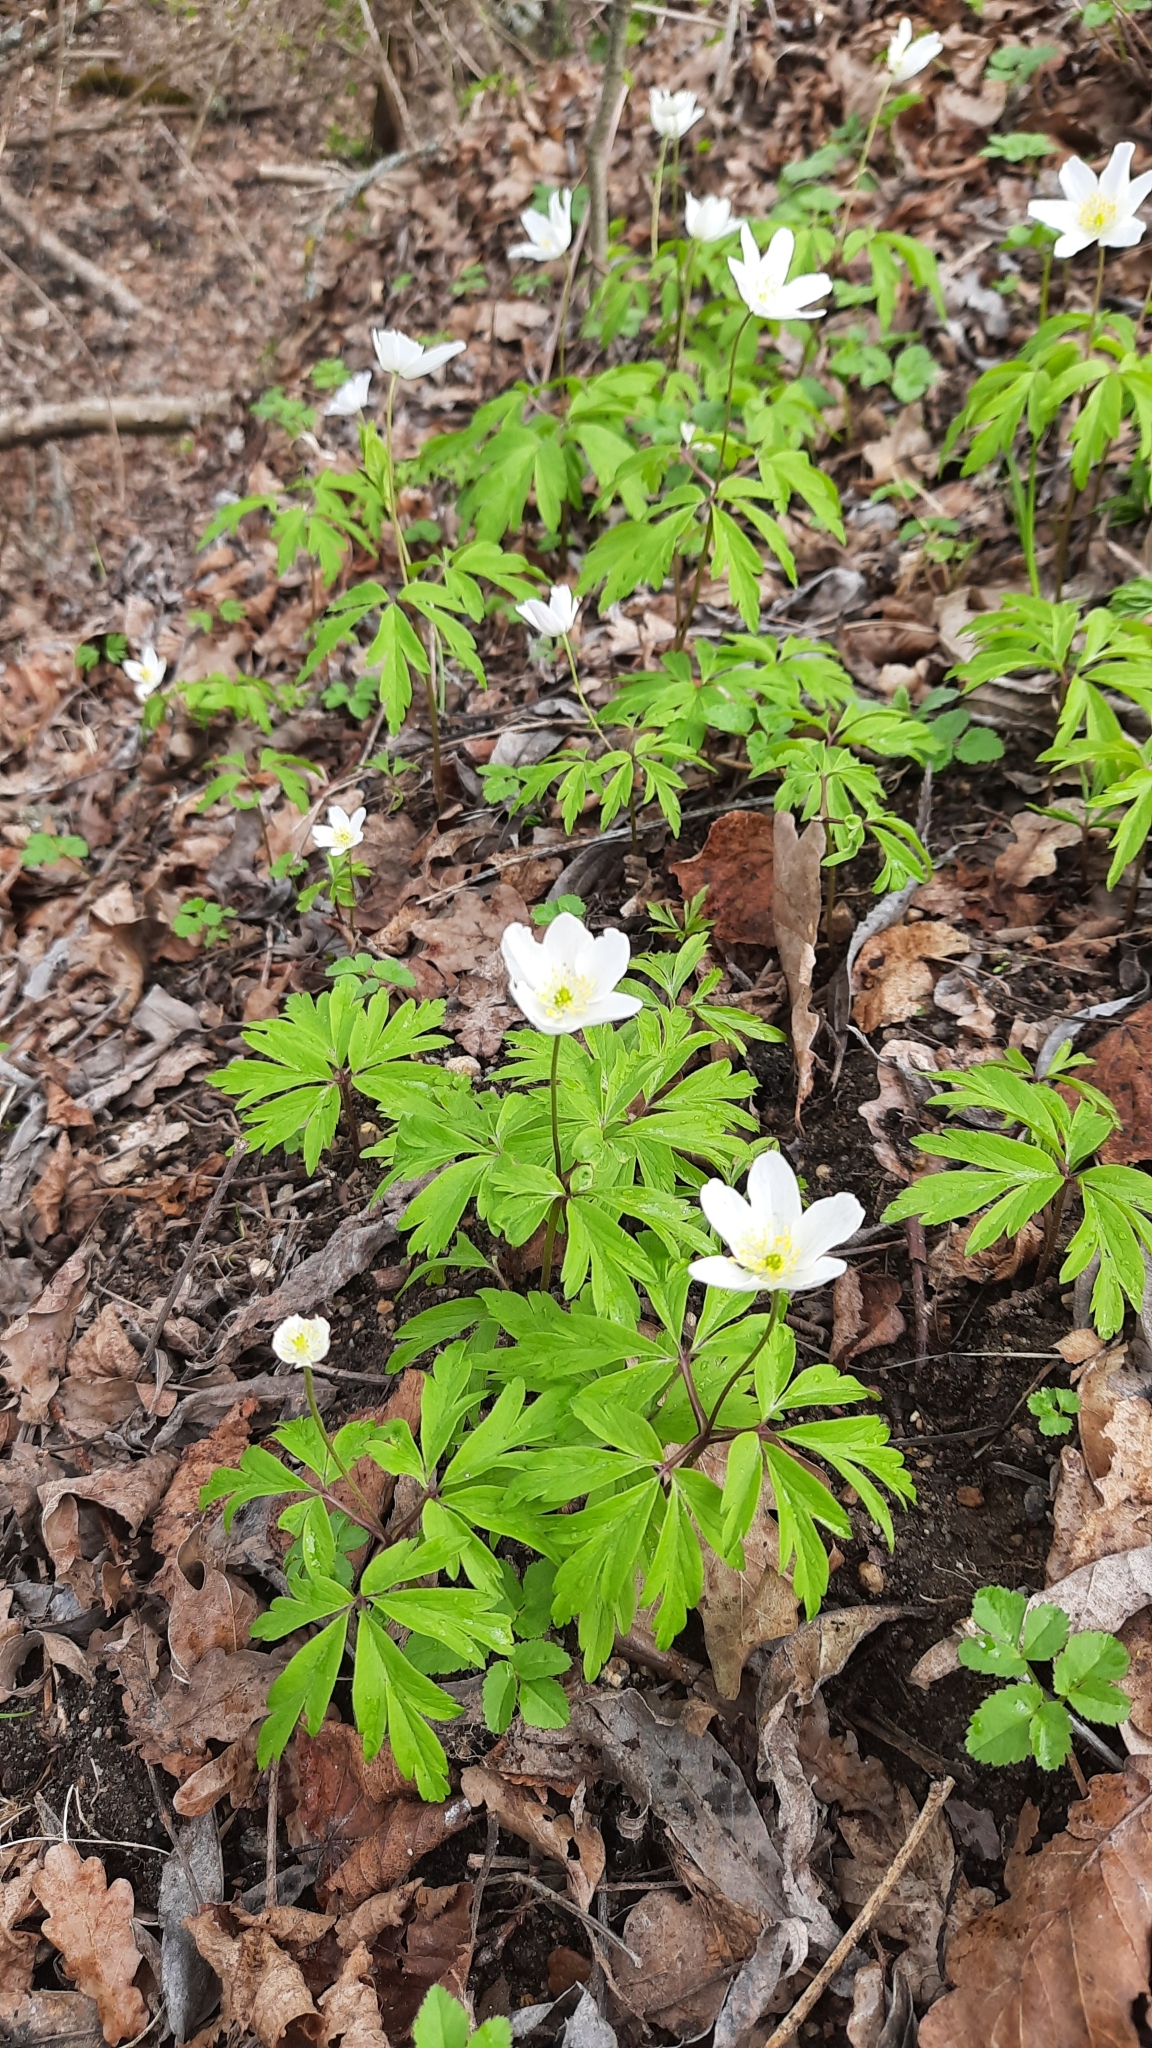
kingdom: Plantae
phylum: Tracheophyta
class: Magnoliopsida
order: Ranunculales
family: Ranunculaceae
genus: Anemone
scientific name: Anemone nemorosa
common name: Wood anemone
